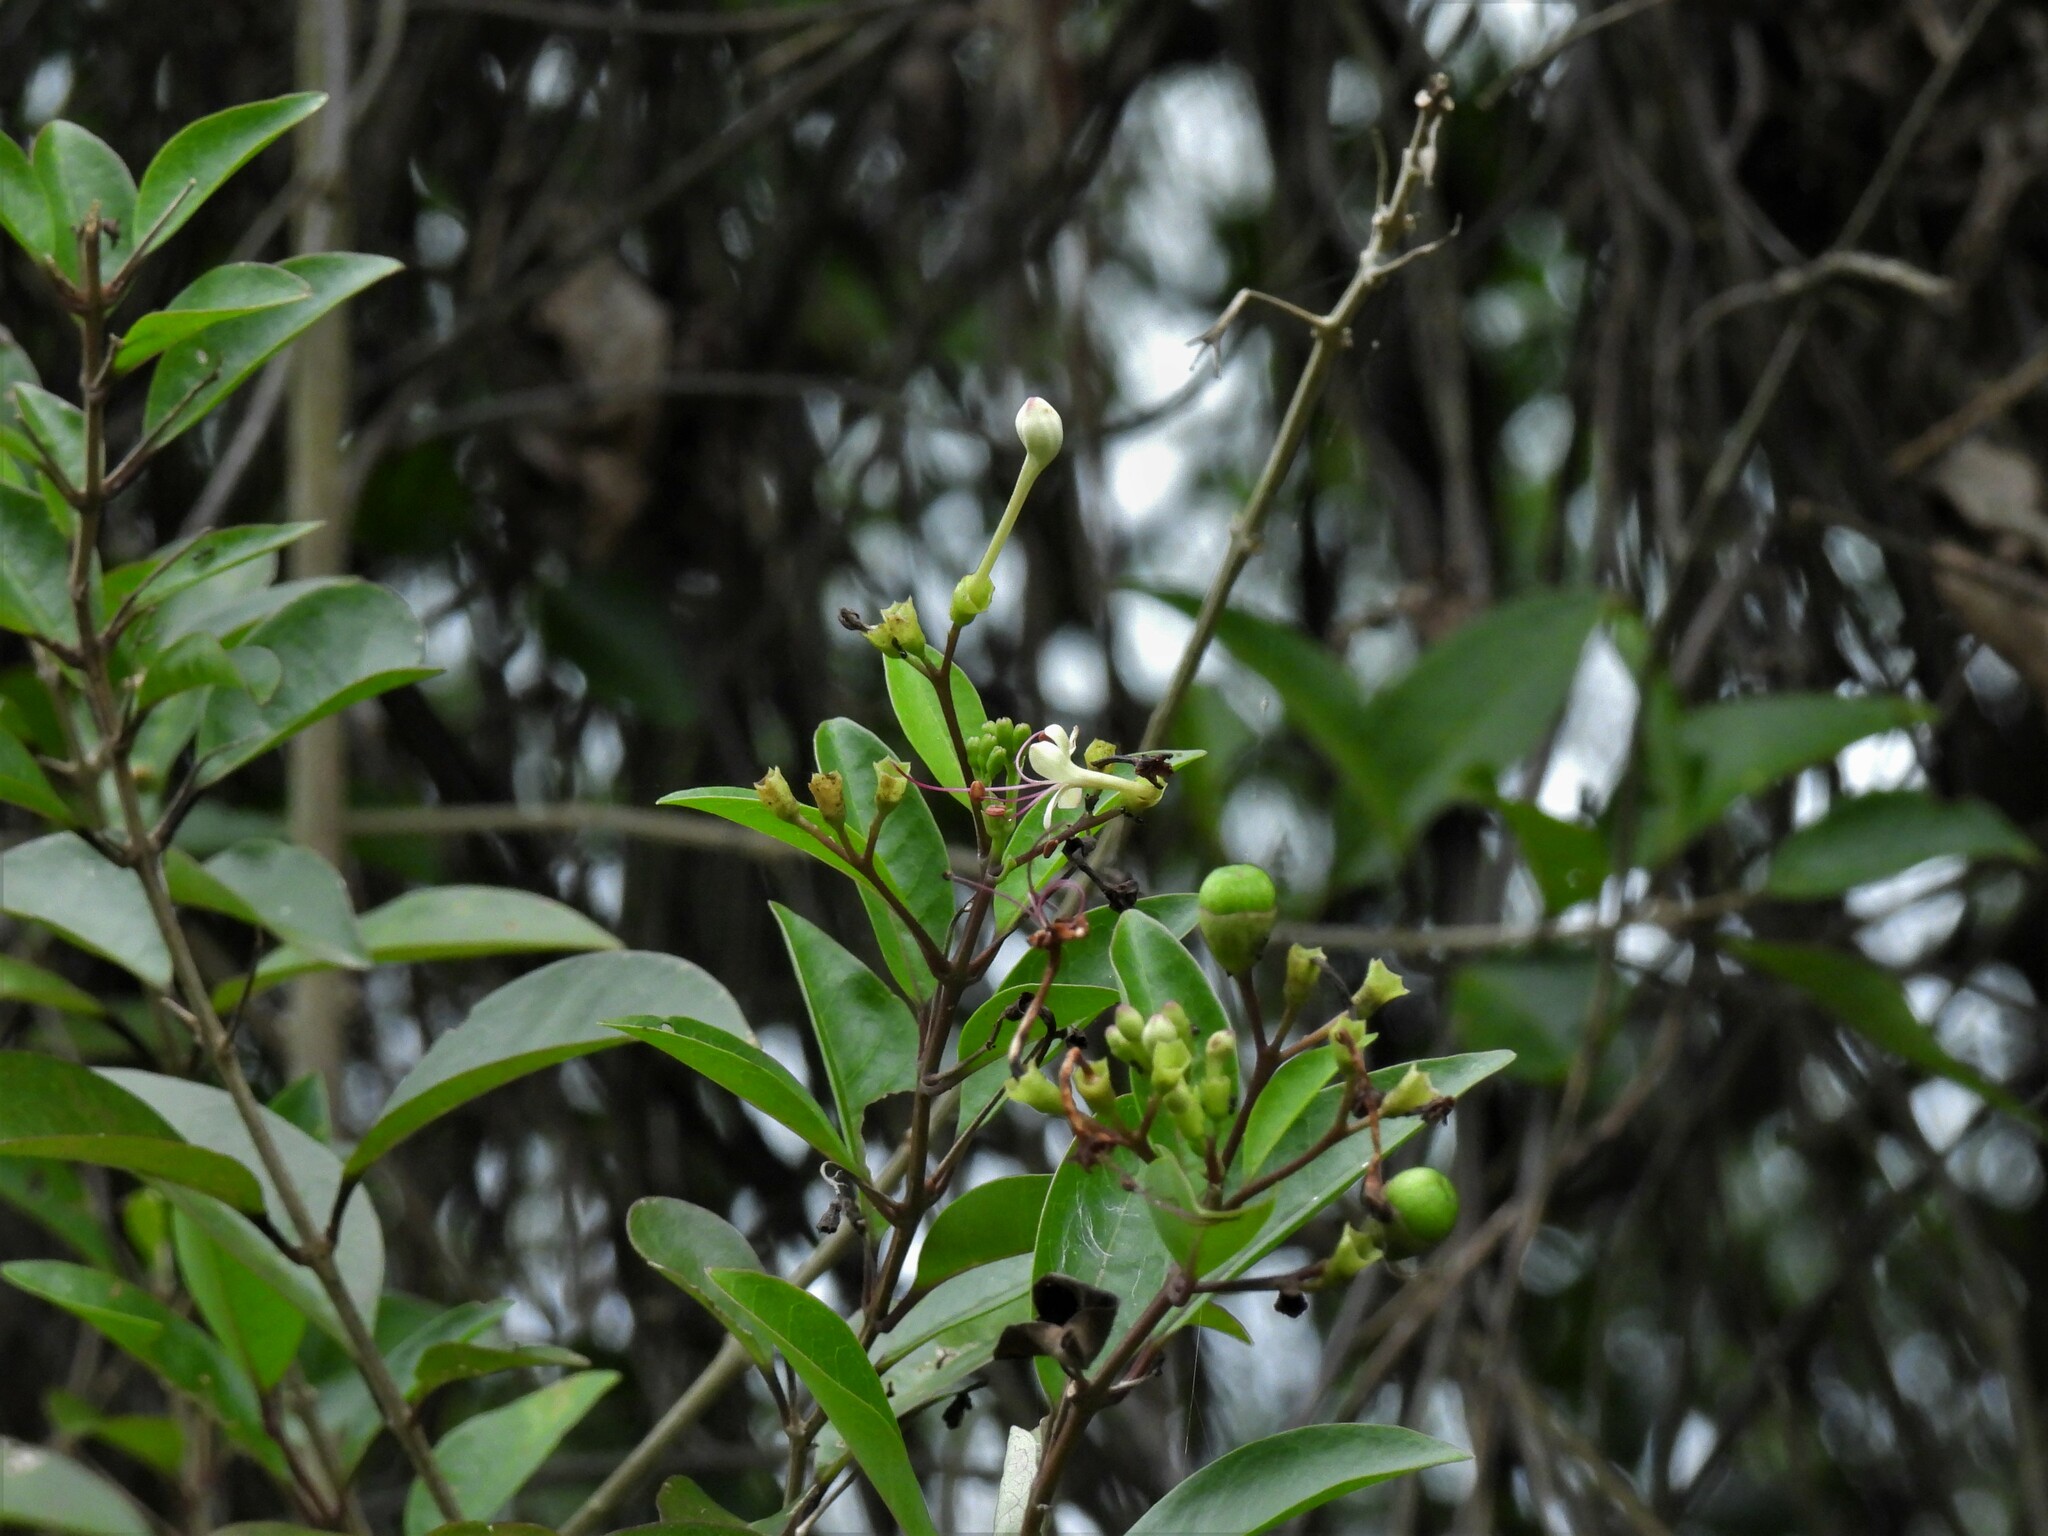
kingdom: Plantae
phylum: Tracheophyta
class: Magnoliopsida
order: Lamiales
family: Lamiaceae
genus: Volkameria
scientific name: Volkameria inermis
